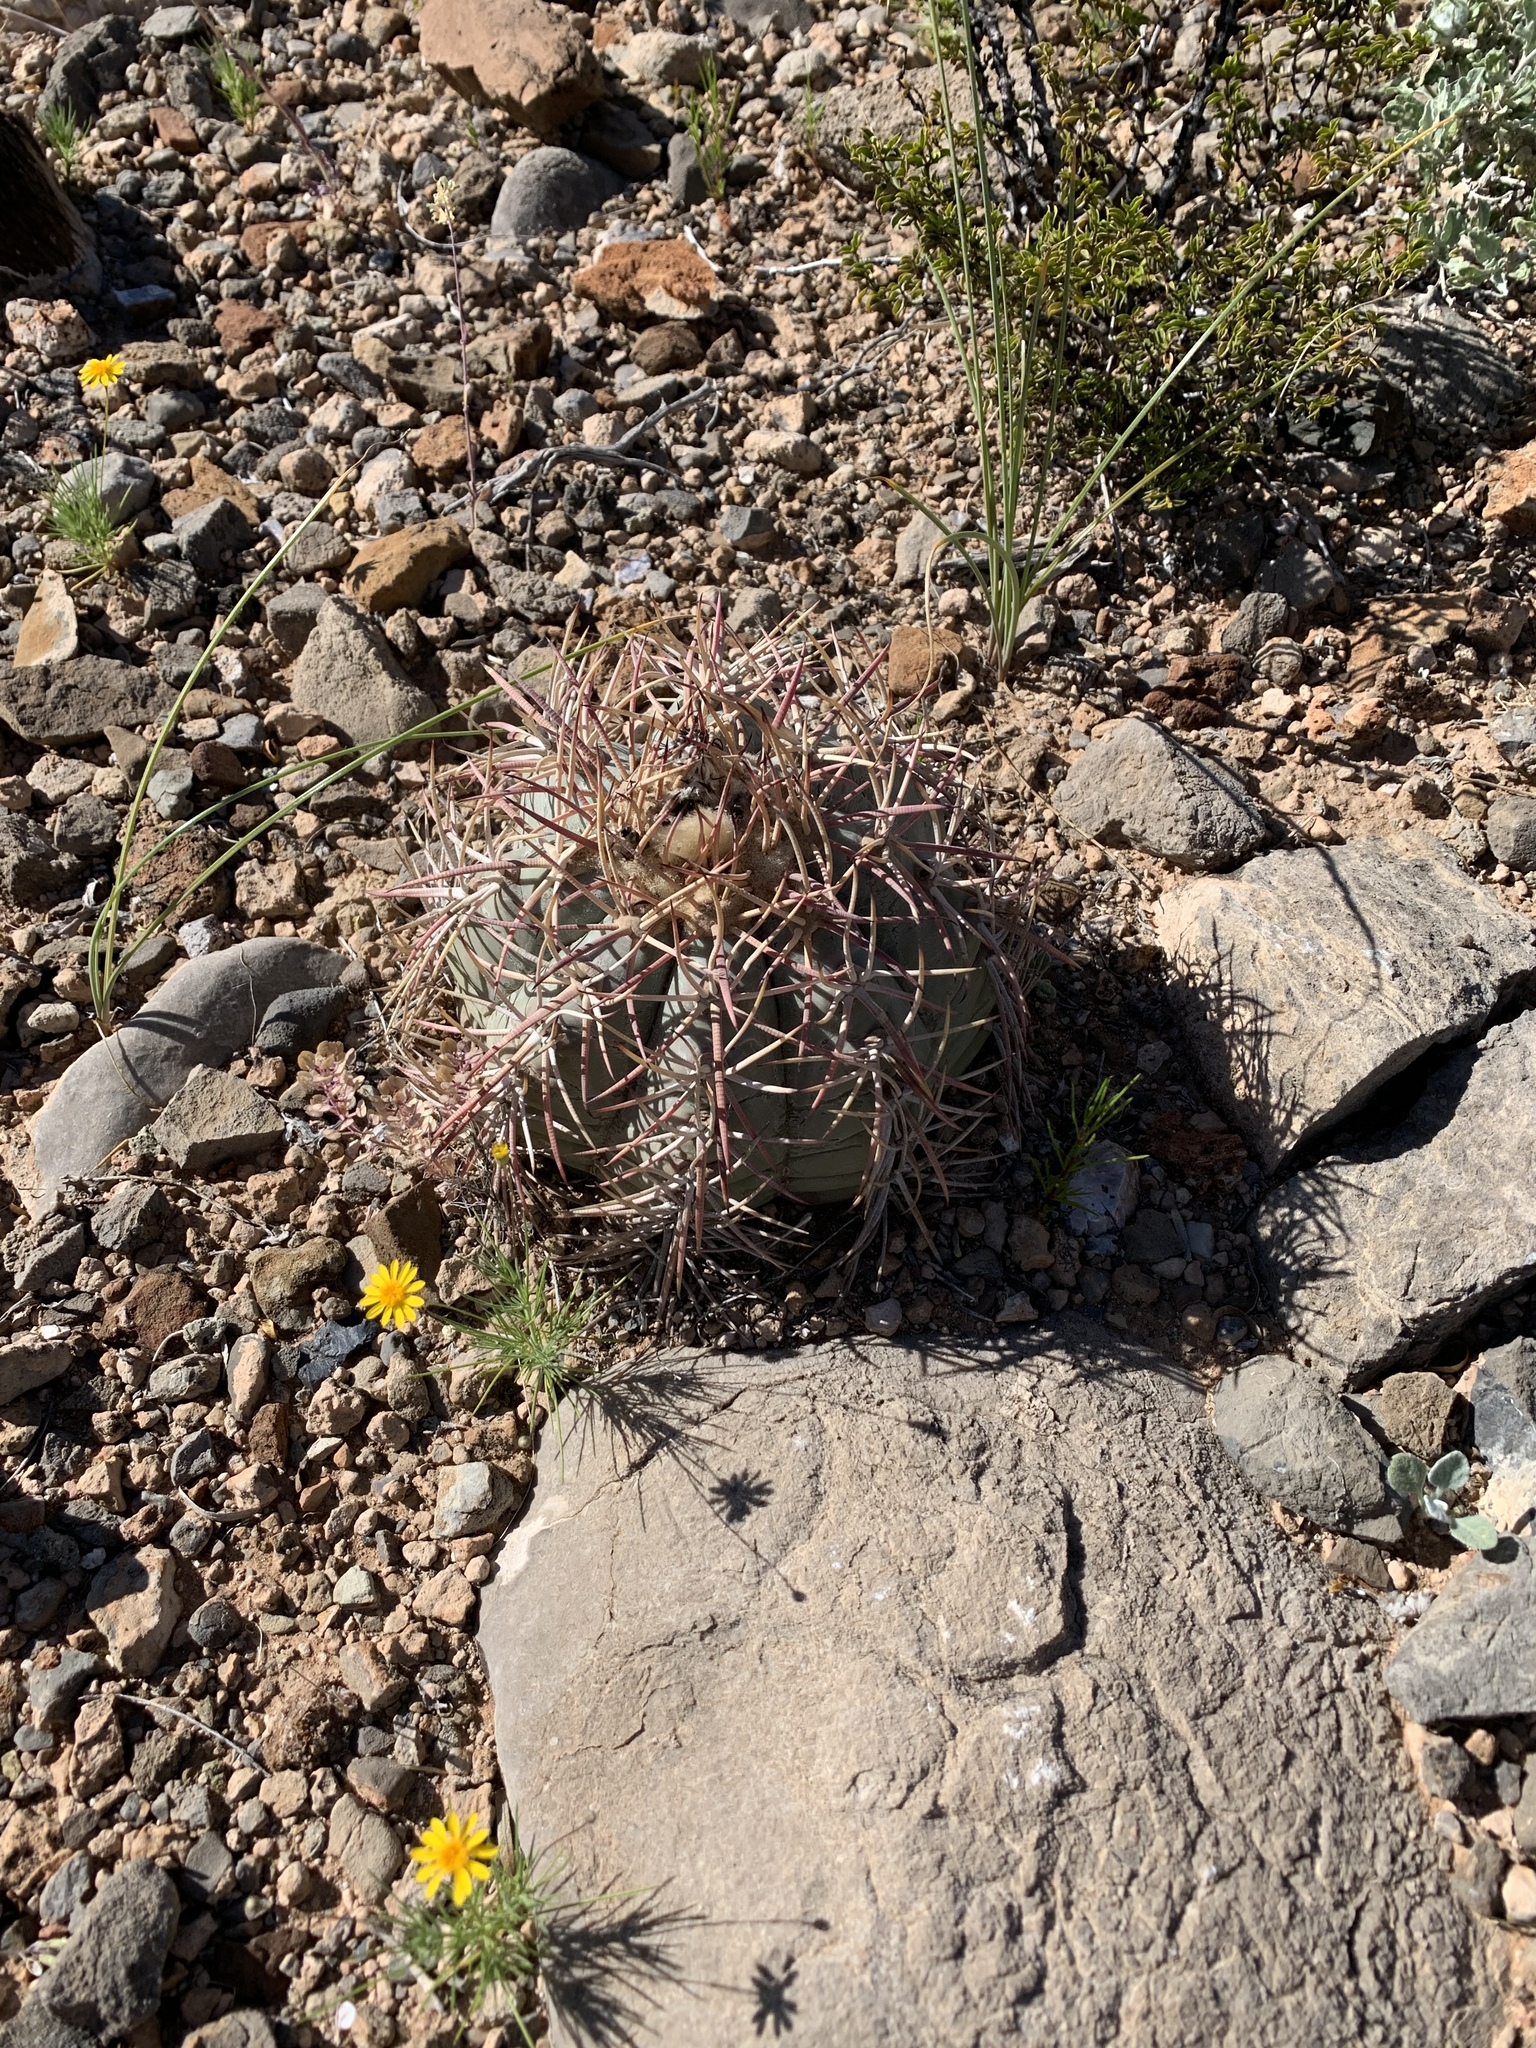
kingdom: Plantae
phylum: Tracheophyta
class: Magnoliopsida
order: Caryophyllales
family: Cactaceae
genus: Echinocactus
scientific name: Echinocactus horizonthalonius
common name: Devilshead
